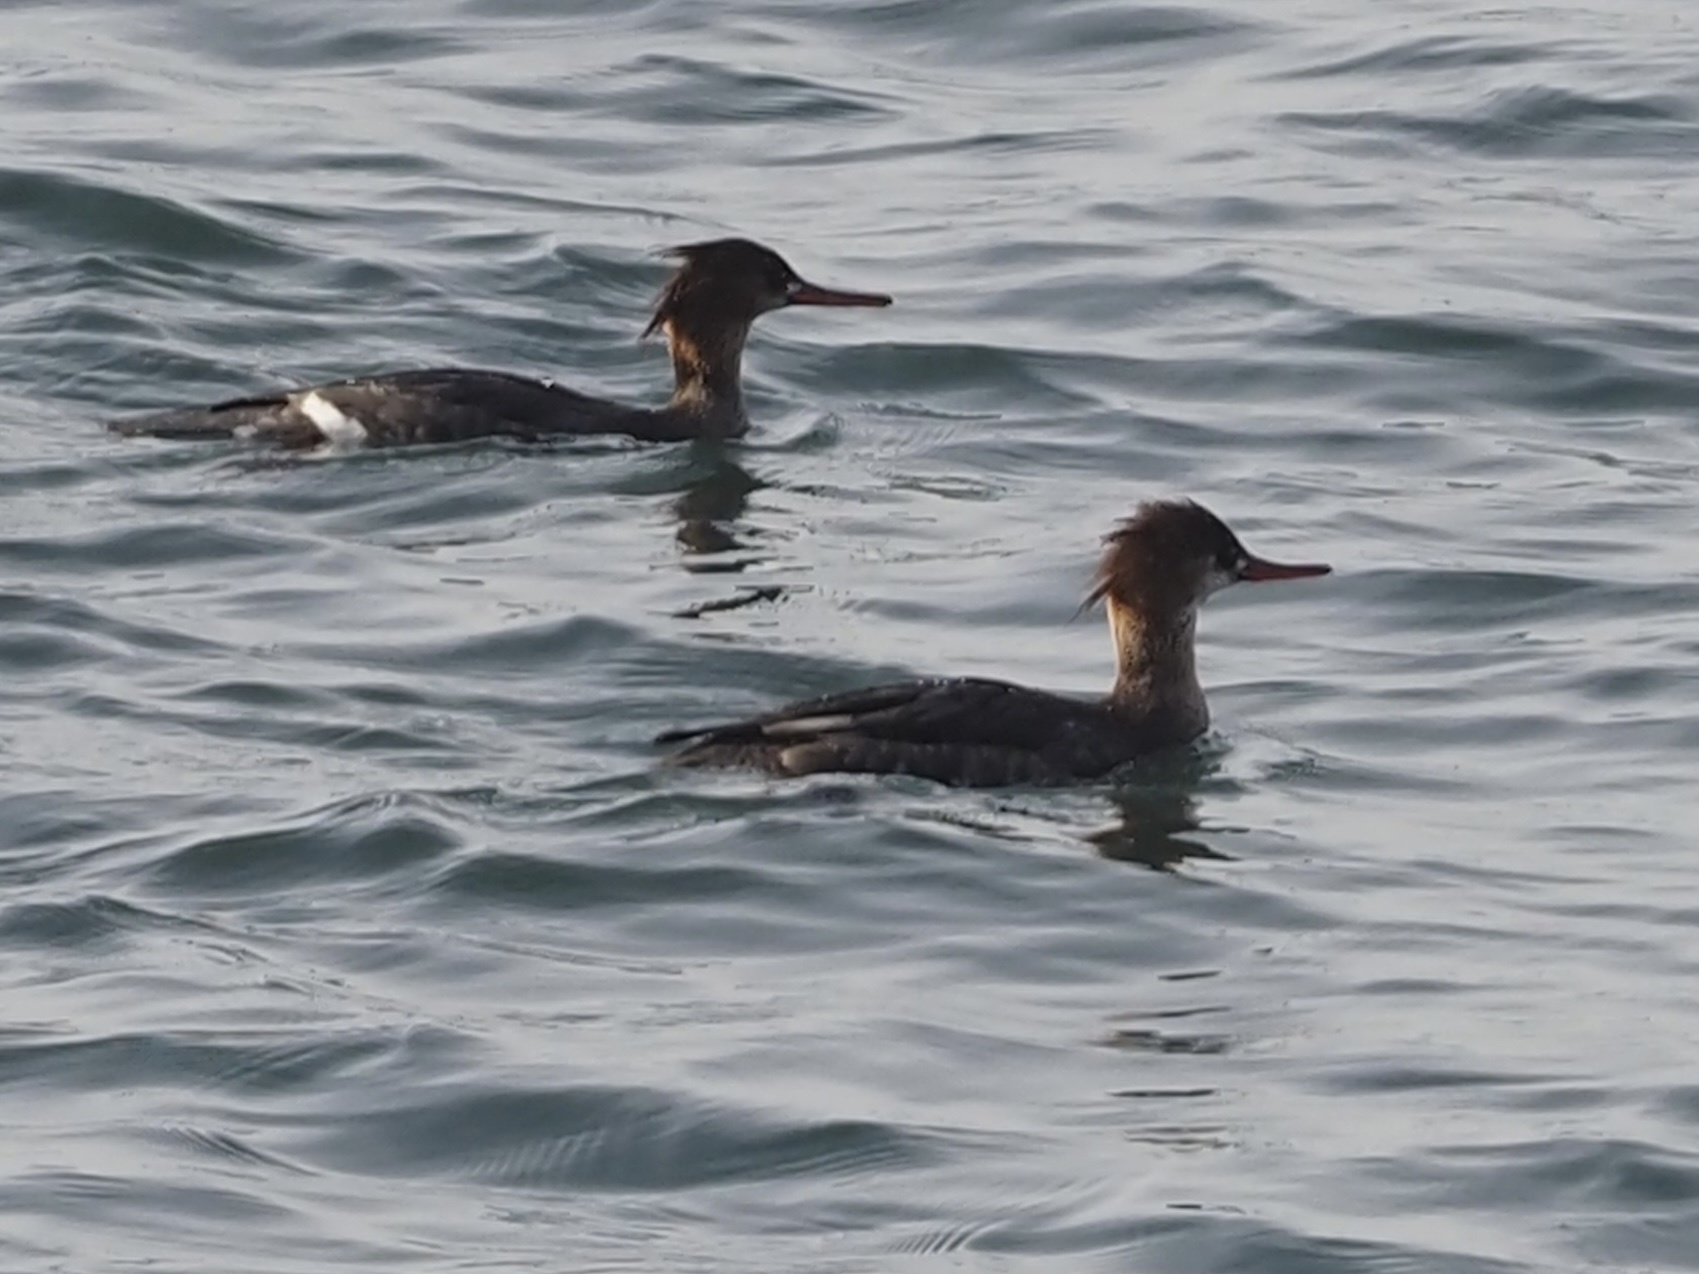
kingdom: Animalia
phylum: Chordata
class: Aves
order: Anseriformes
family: Anatidae
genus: Mergus
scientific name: Mergus serrator
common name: Red-breasted merganser
